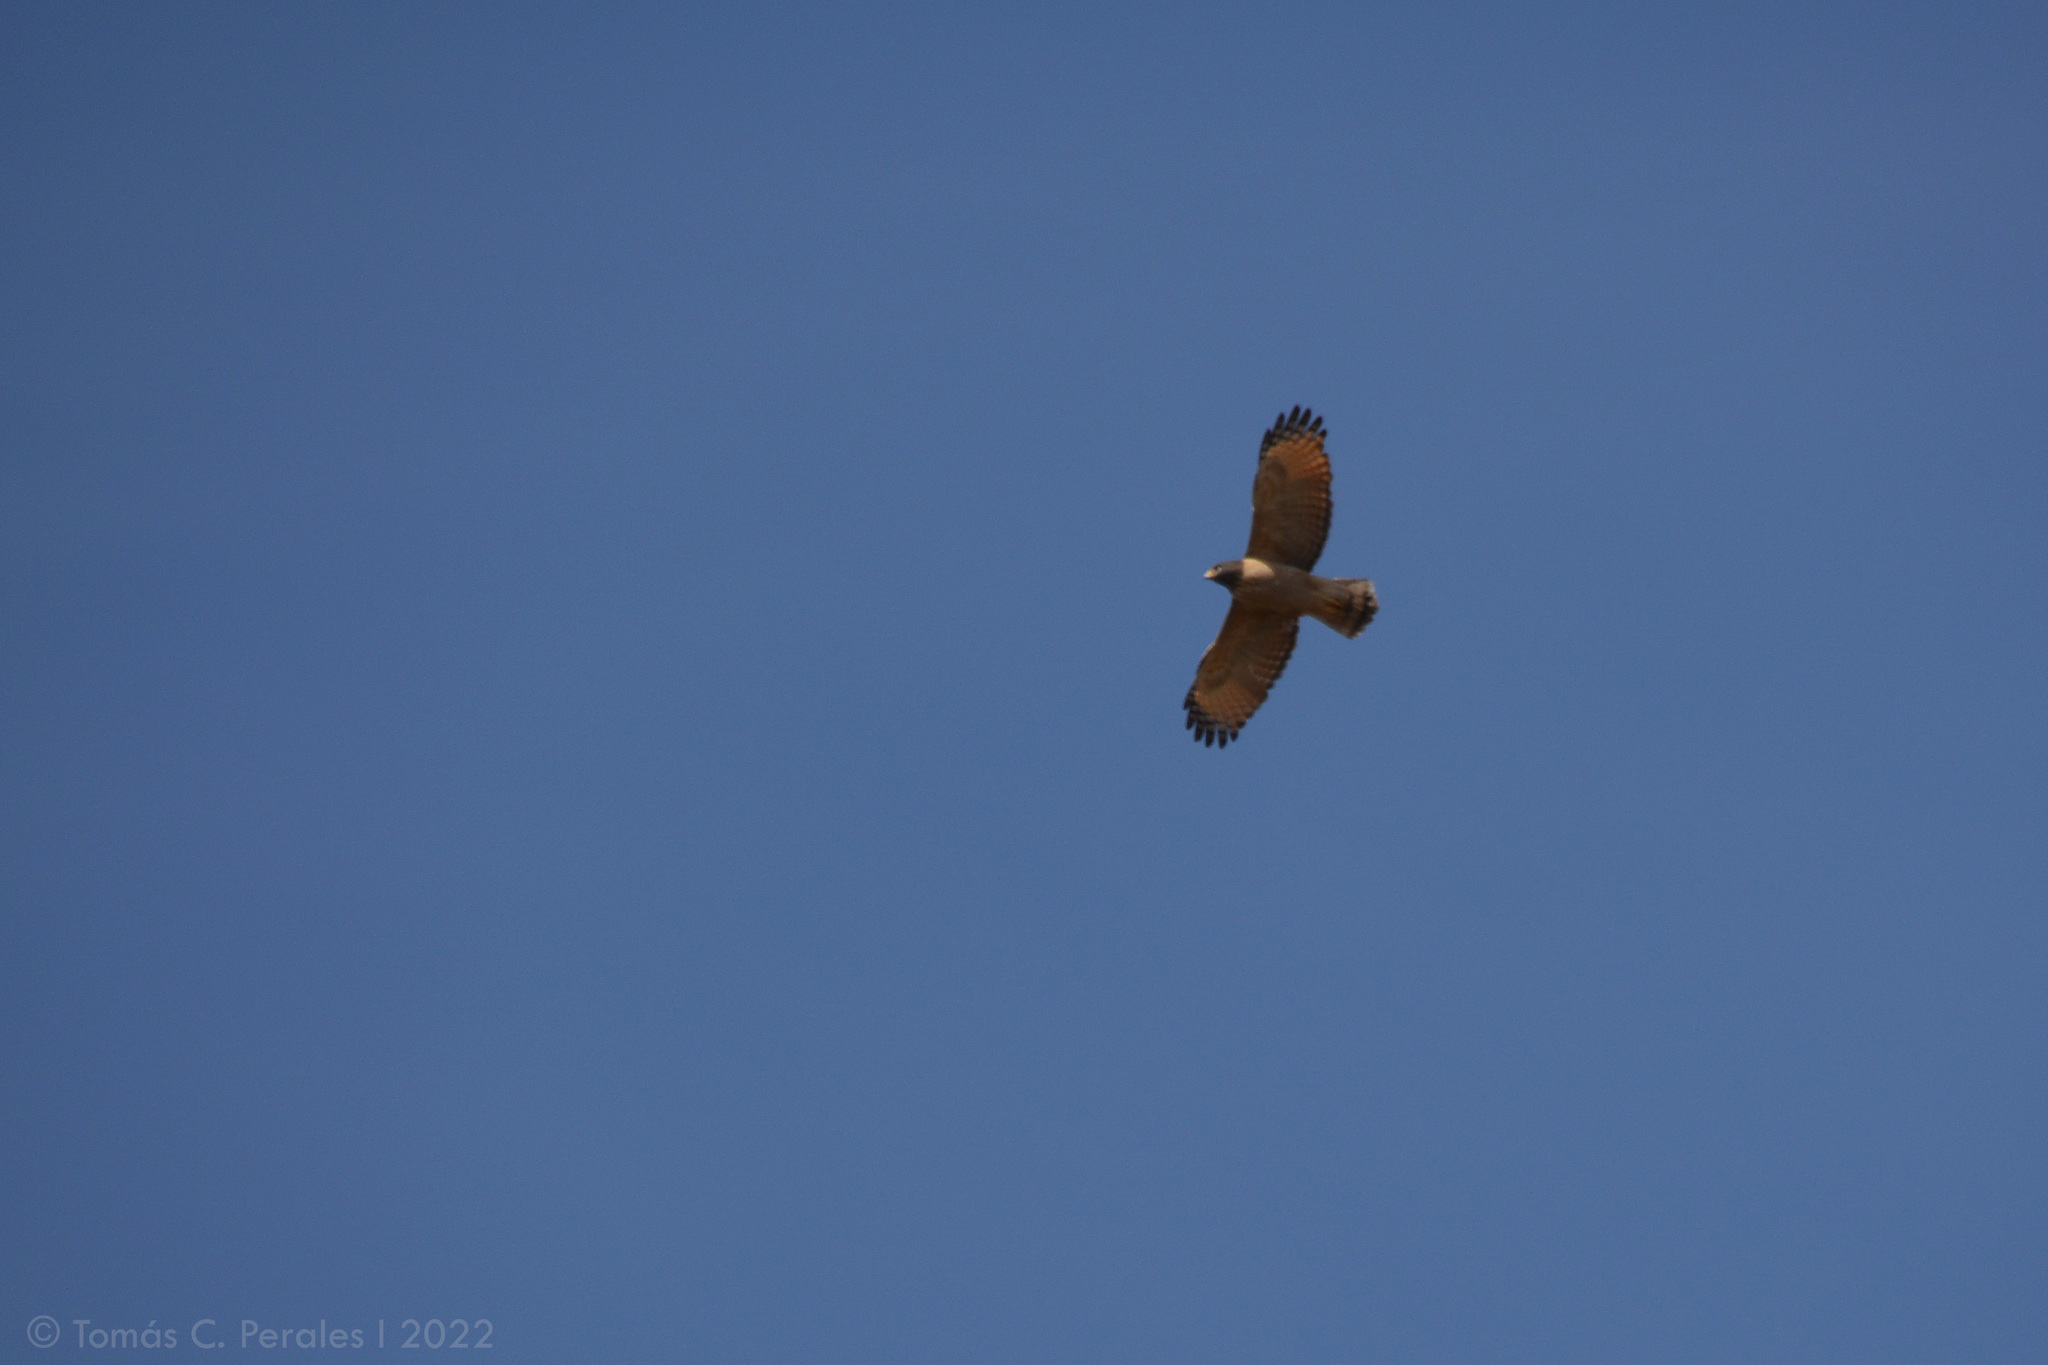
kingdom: Animalia
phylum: Chordata
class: Aves
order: Accipitriformes
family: Accipitridae
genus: Rupornis
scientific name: Rupornis magnirostris
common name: Roadside hawk
